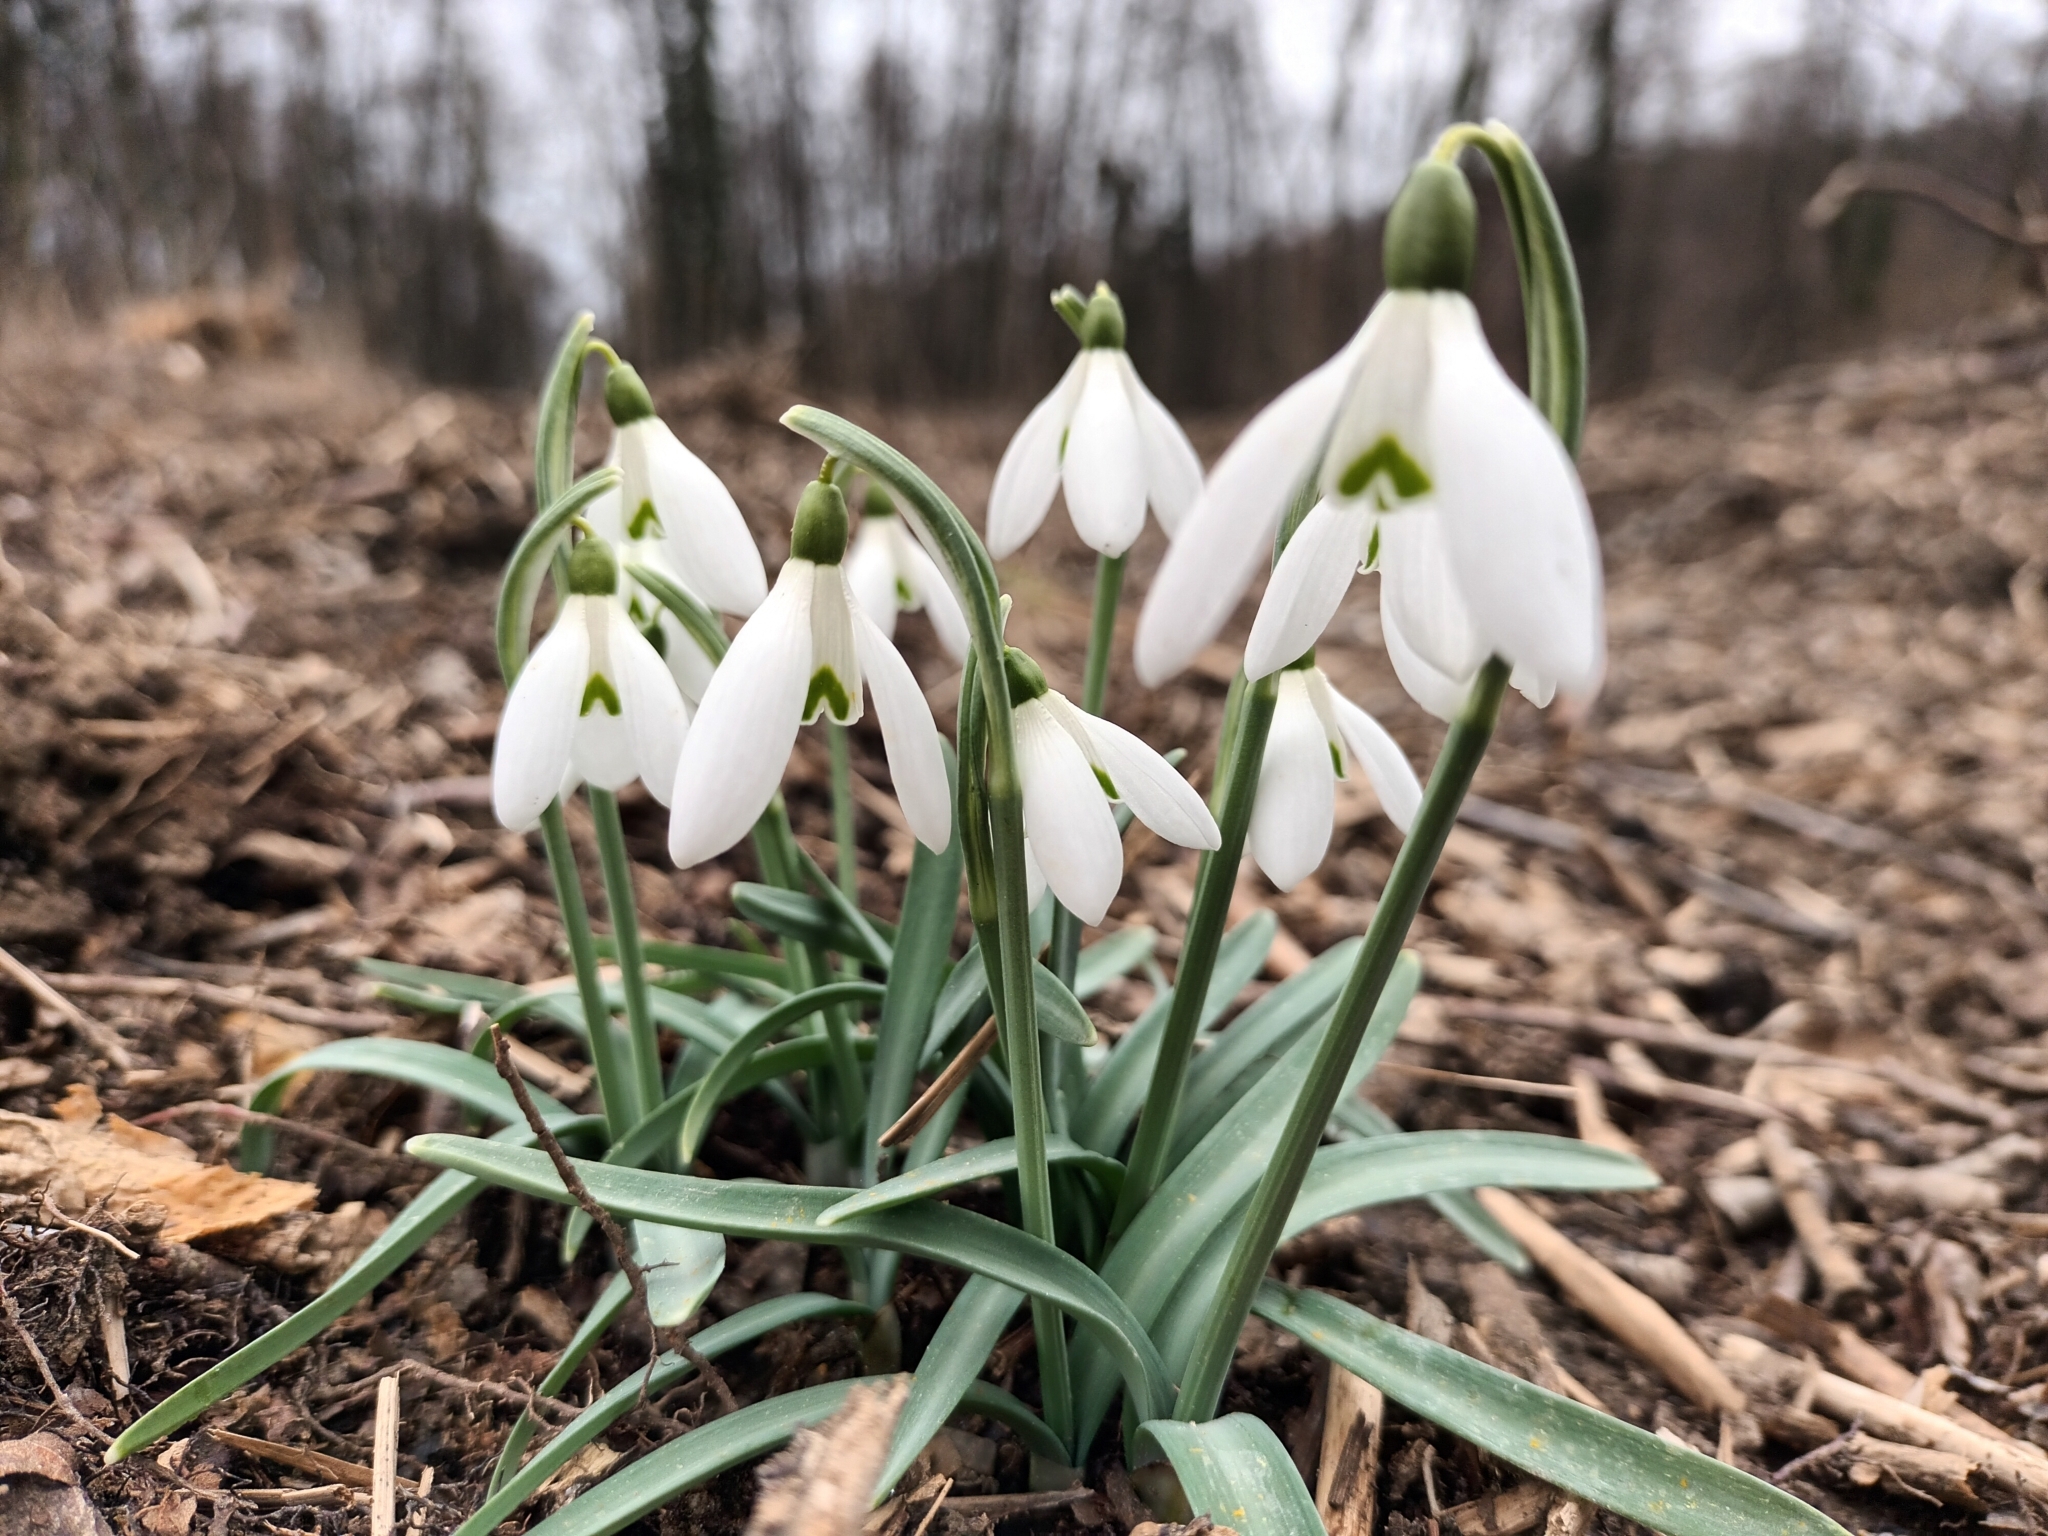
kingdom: Plantae
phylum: Tracheophyta
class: Liliopsida
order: Asparagales
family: Amaryllidaceae
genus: Galanthus
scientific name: Galanthus nivalis
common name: Snowdrop
